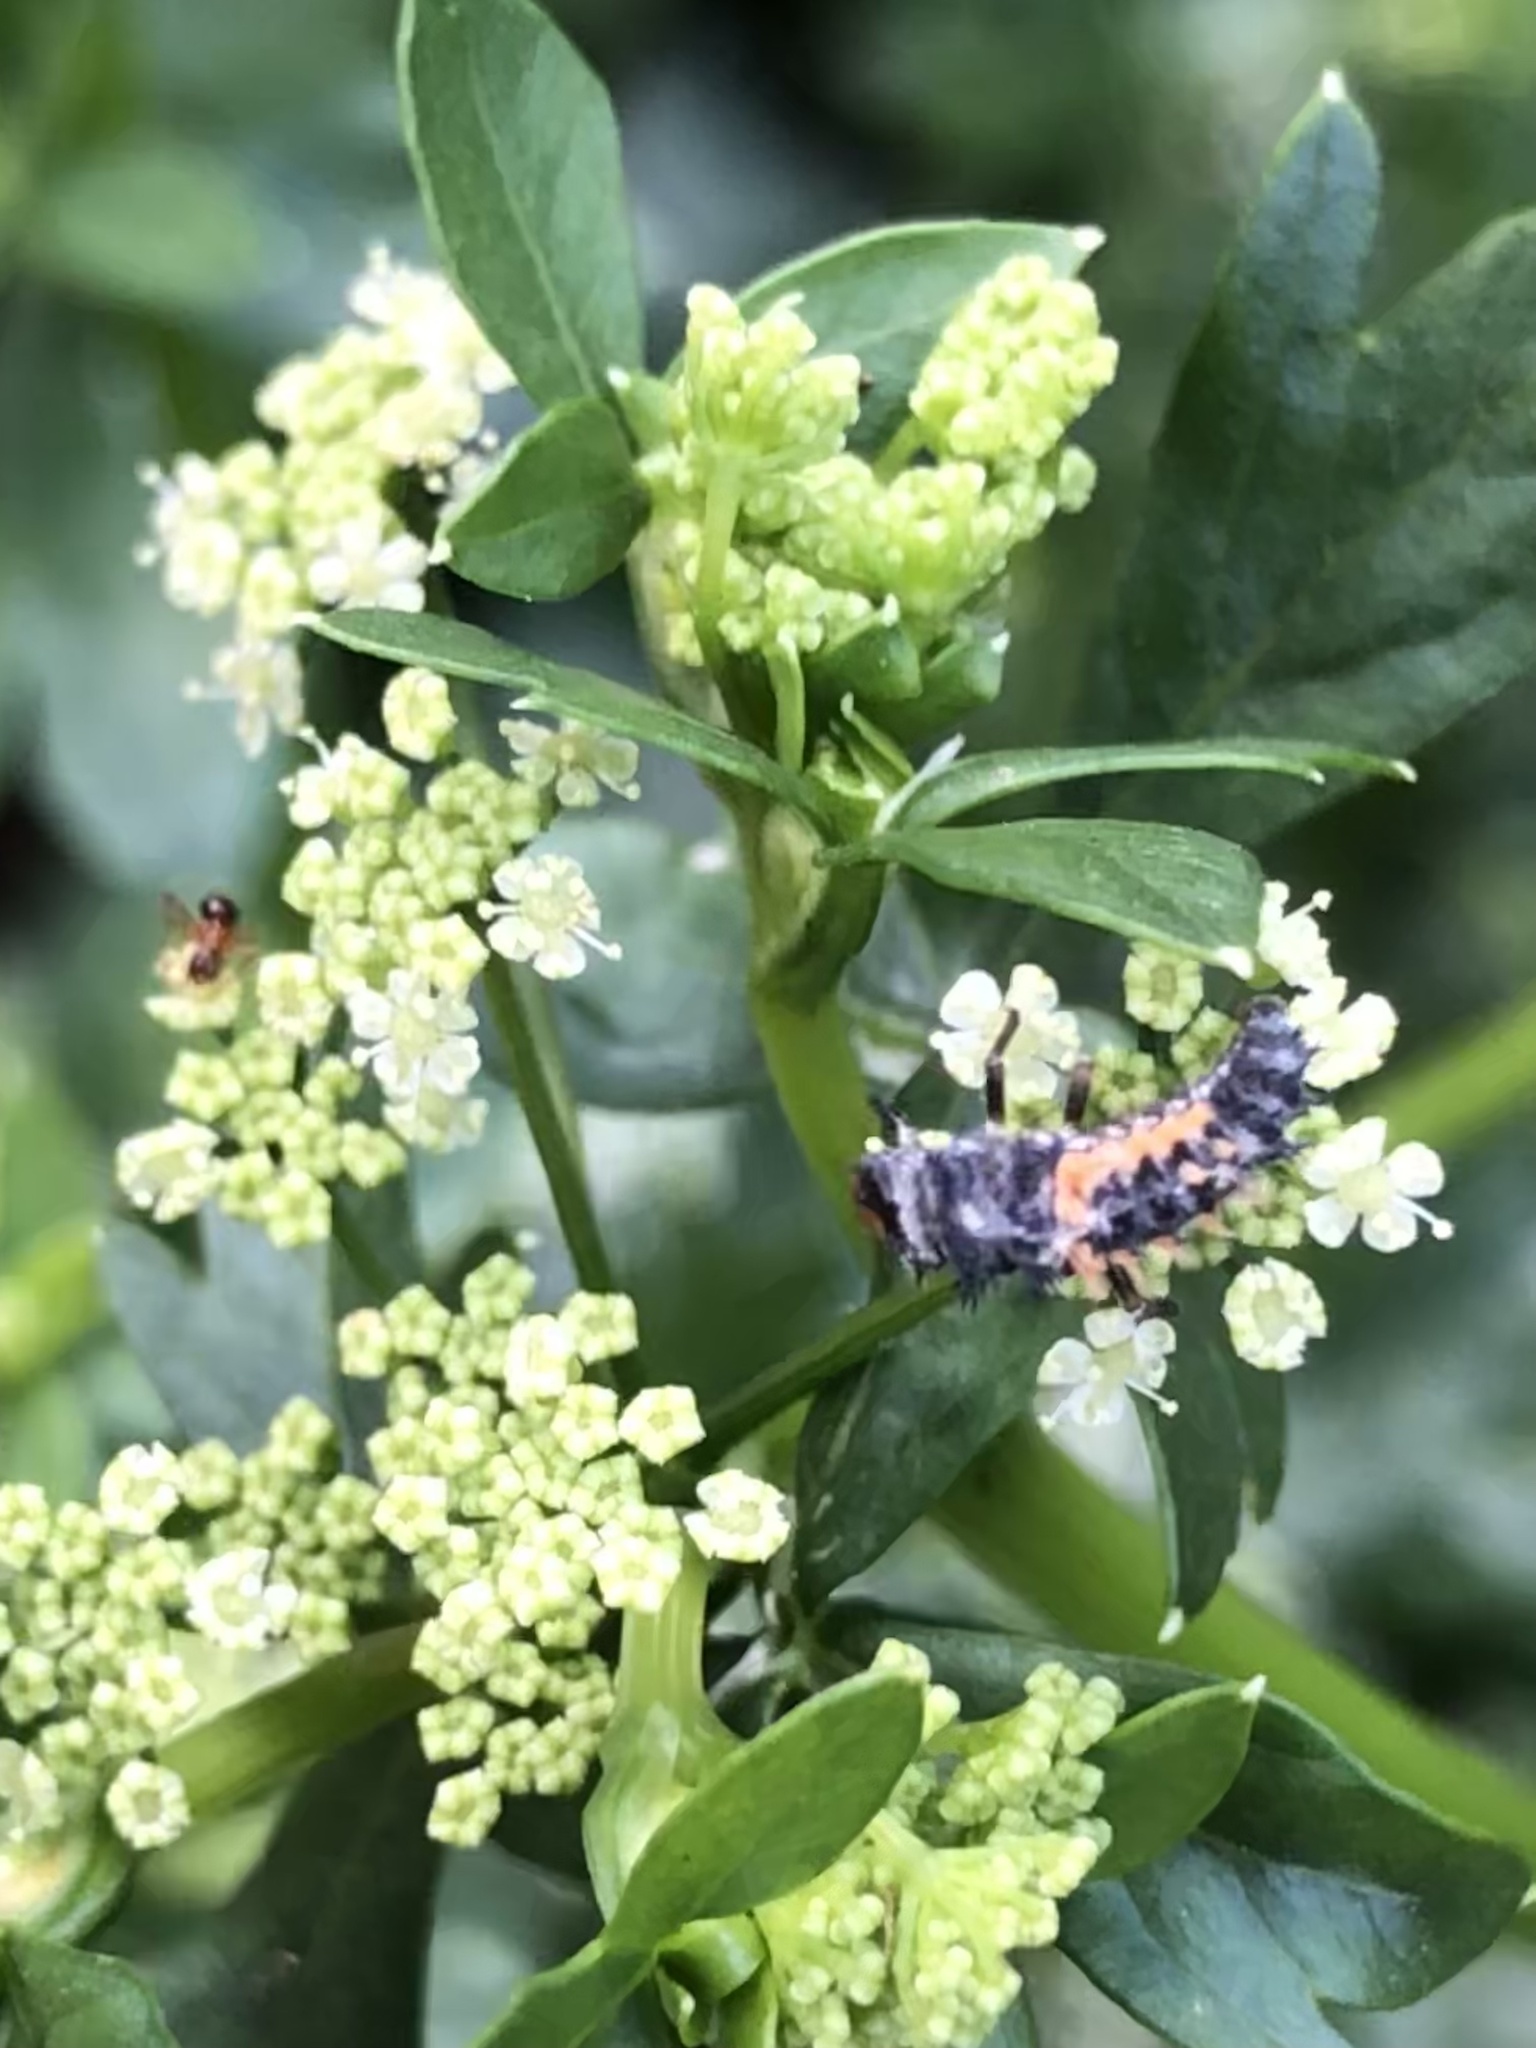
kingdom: Animalia
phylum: Arthropoda
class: Insecta
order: Coleoptera
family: Coccinellidae
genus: Harmonia
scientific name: Harmonia axyridis
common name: Harlequin ladybird
